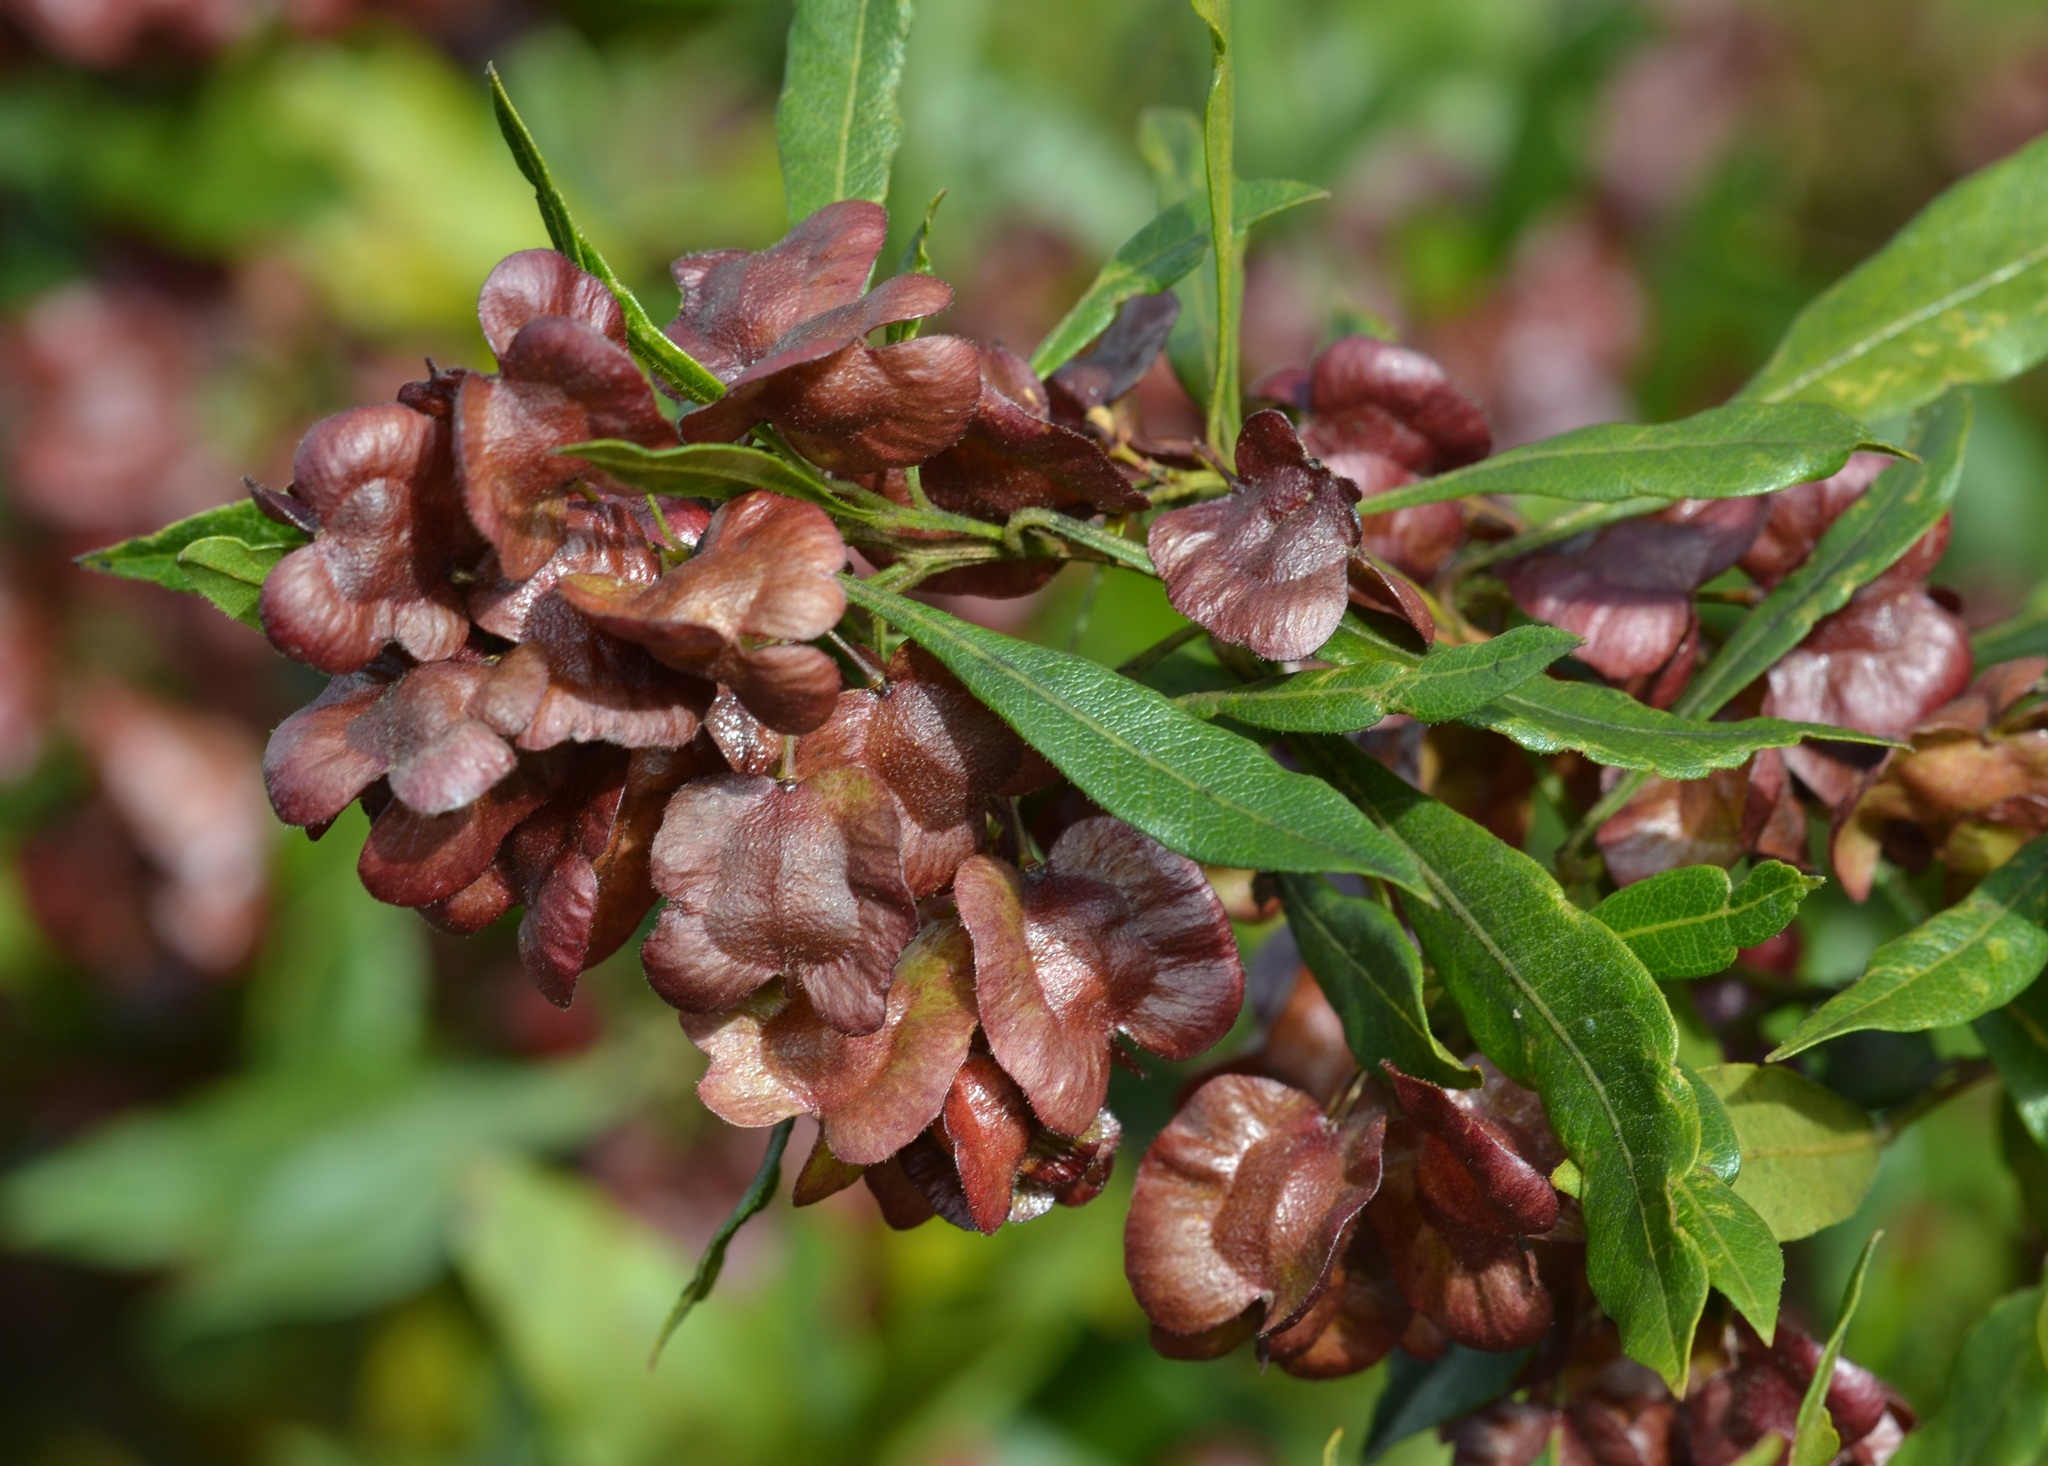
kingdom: Plantae
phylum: Tracheophyta
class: Magnoliopsida
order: Sapindales
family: Sapindaceae
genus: Dodonaea
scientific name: Dodonaea viscosa
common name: Hopbush
